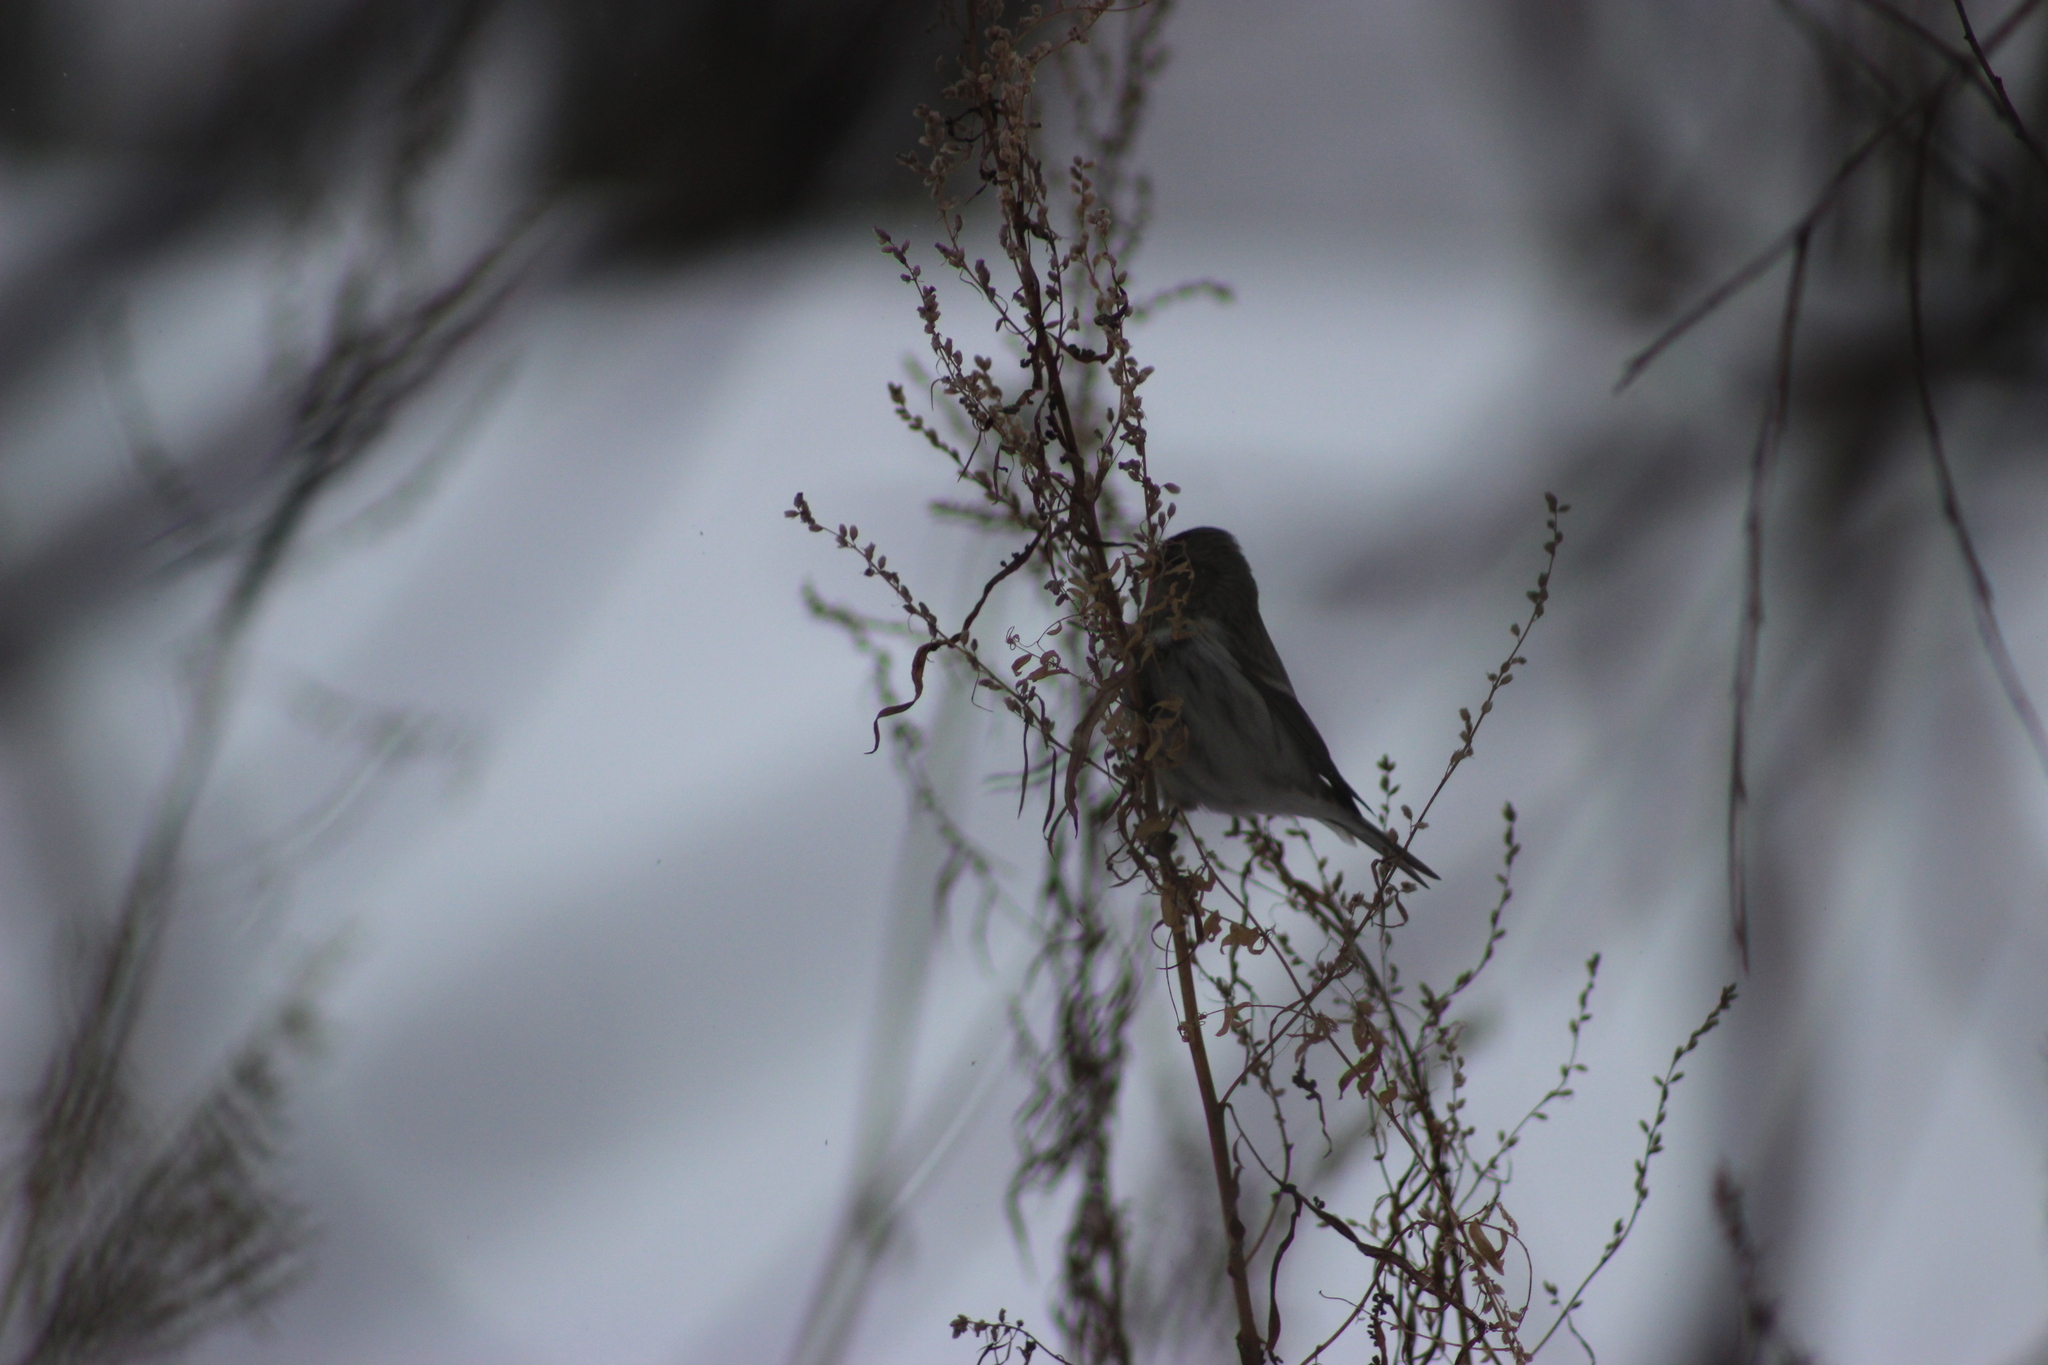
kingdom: Animalia
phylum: Chordata
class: Aves
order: Passeriformes
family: Fringillidae
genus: Acanthis
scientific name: Acanthis hornemanni
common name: Arctic redpoll
